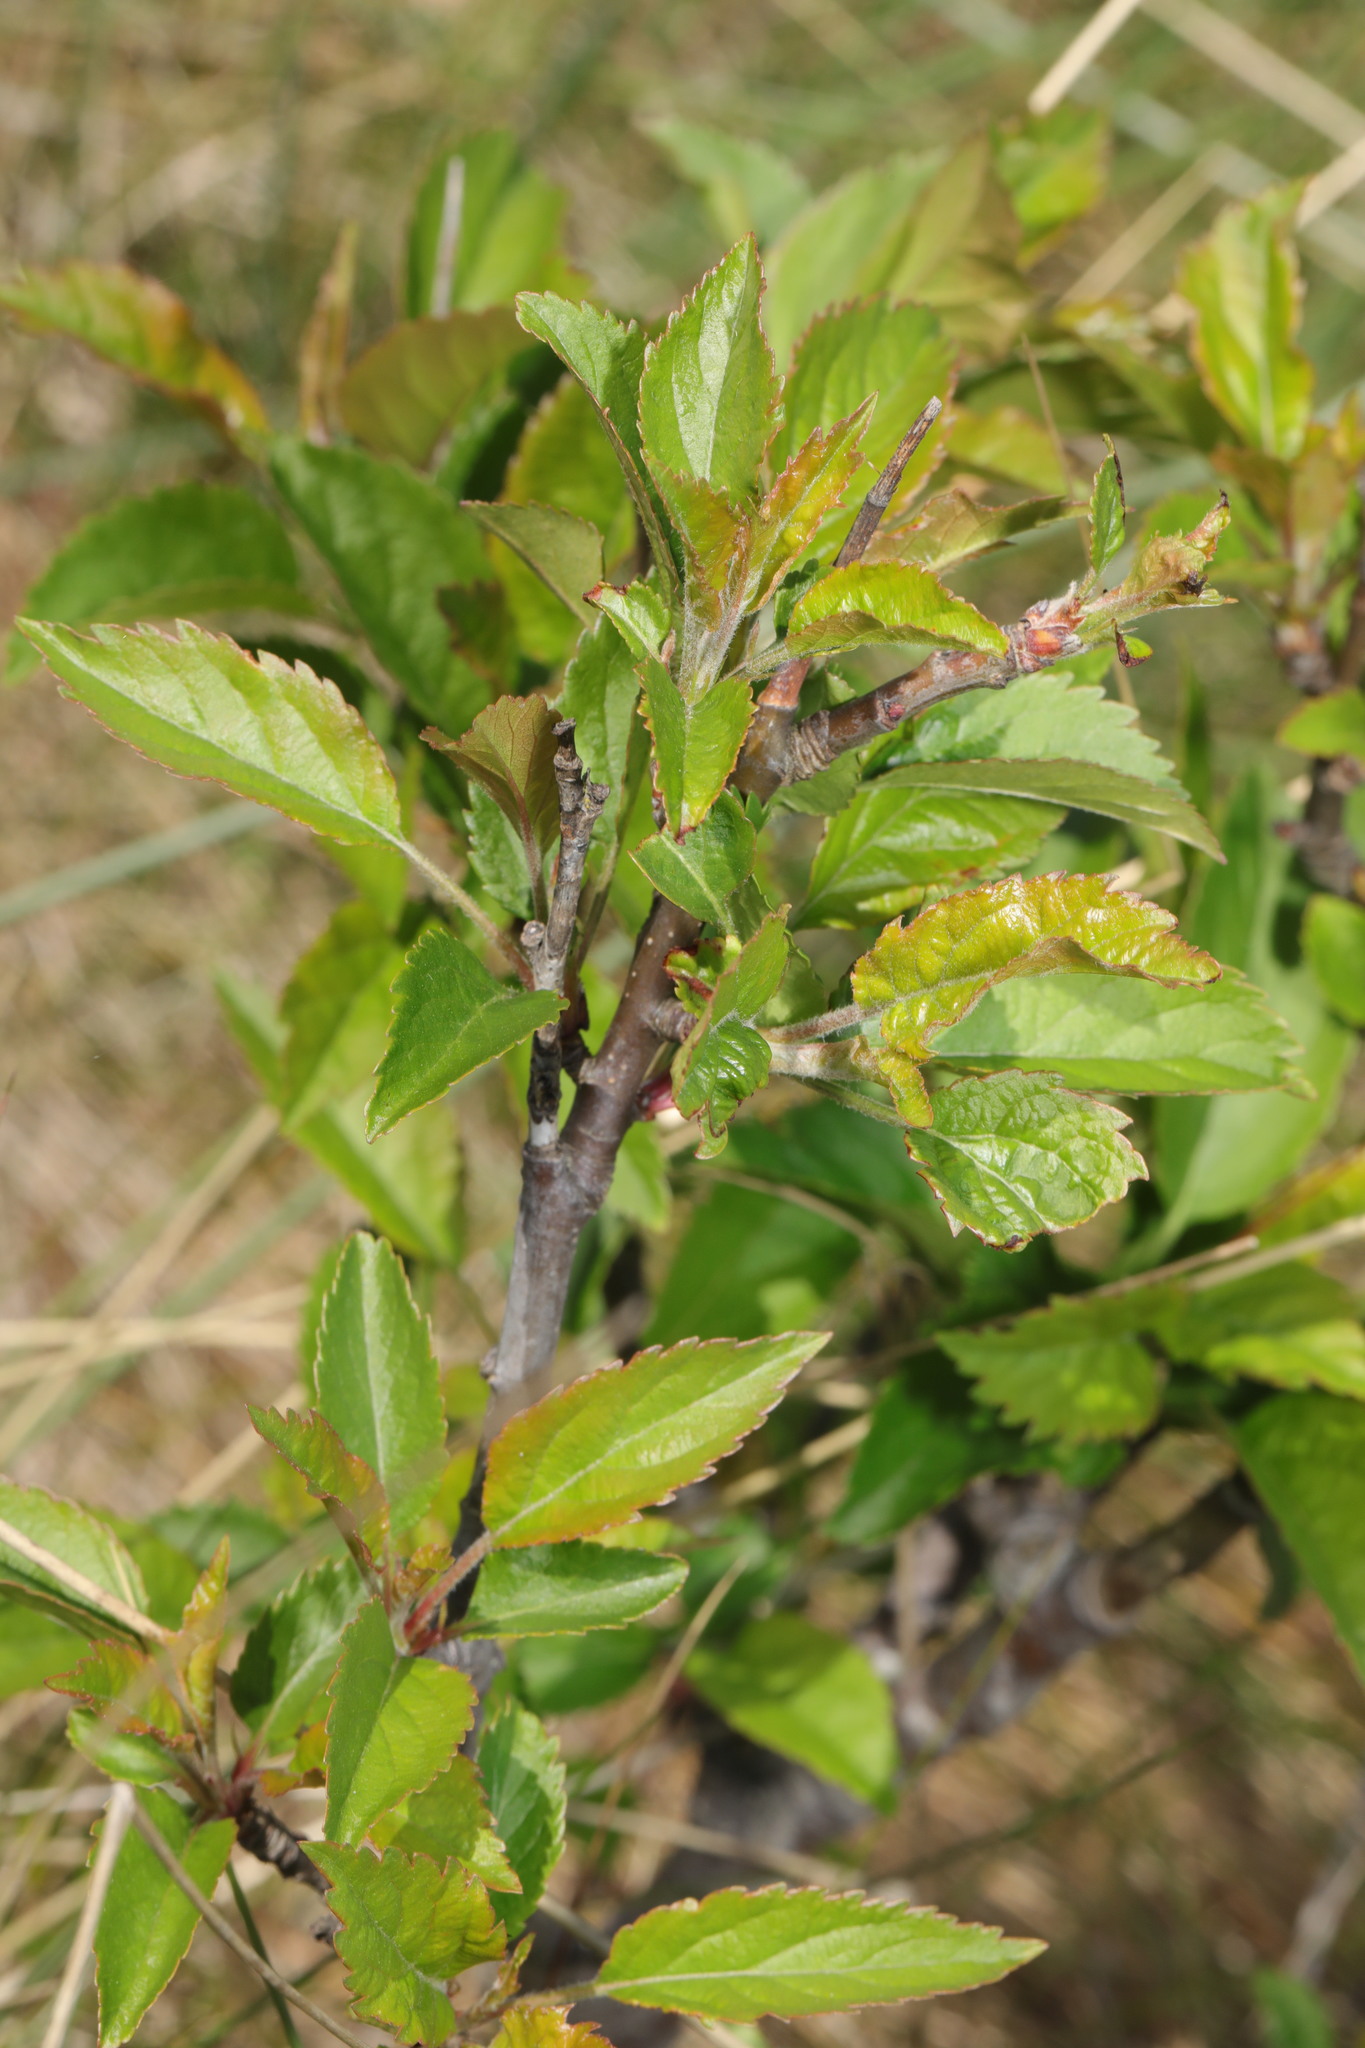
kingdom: Plantae
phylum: Tracheophyta
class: Magnoliopsida
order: Rosales
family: Rosaceae
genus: Malus
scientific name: Malus domestica
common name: Apple
